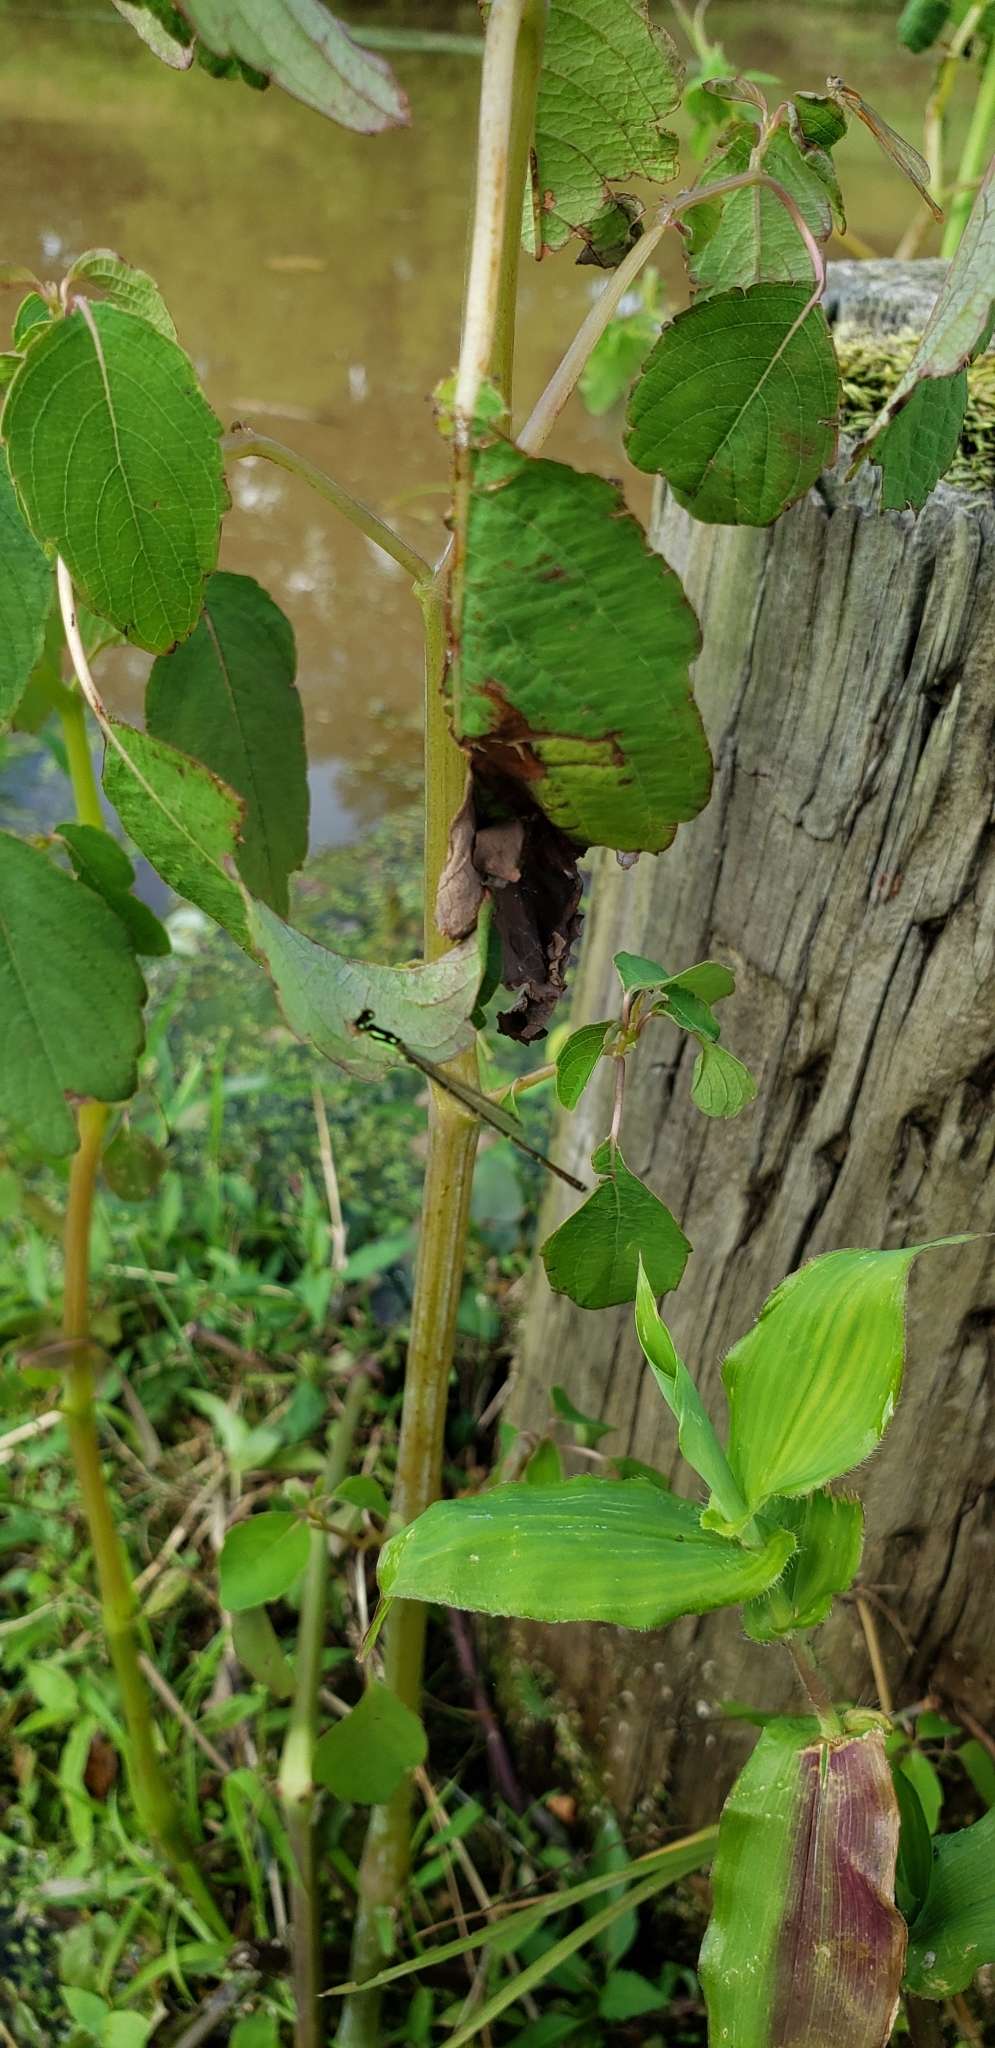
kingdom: Animalia
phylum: Arthropoda
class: Insecta
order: Odonata
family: Coenagrionidae
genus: Ischnura
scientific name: Ischnura posita
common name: Fragile forktail
